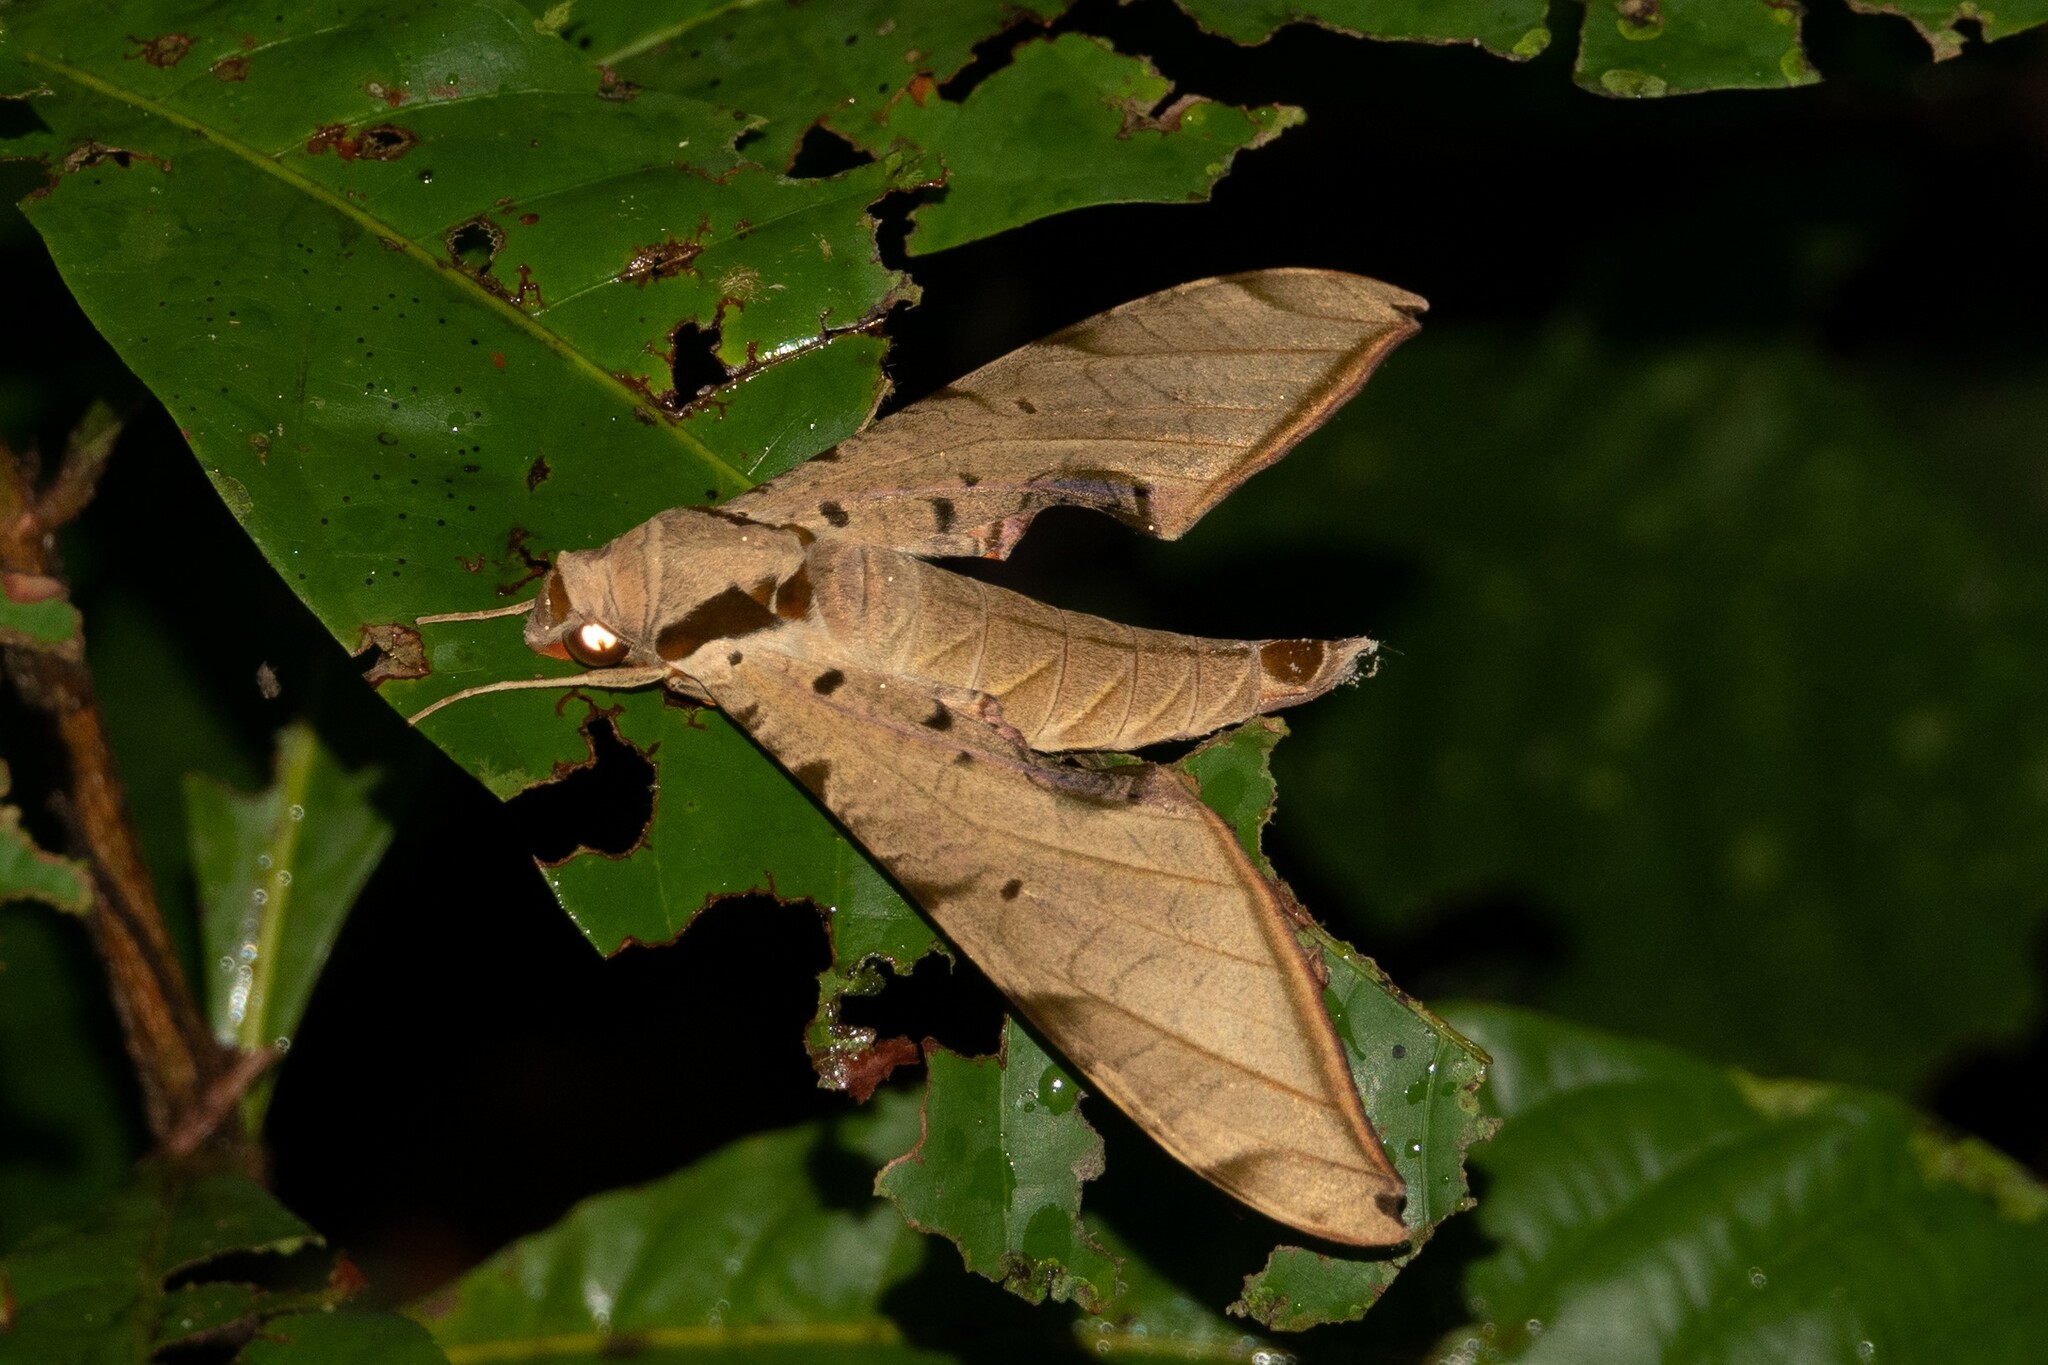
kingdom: Animalia
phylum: Arthropoda
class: Insecta
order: Lepidoptera
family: Sphingidae
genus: Protambulyx
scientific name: Protambulyx strigilis
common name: Streaked sphinx
